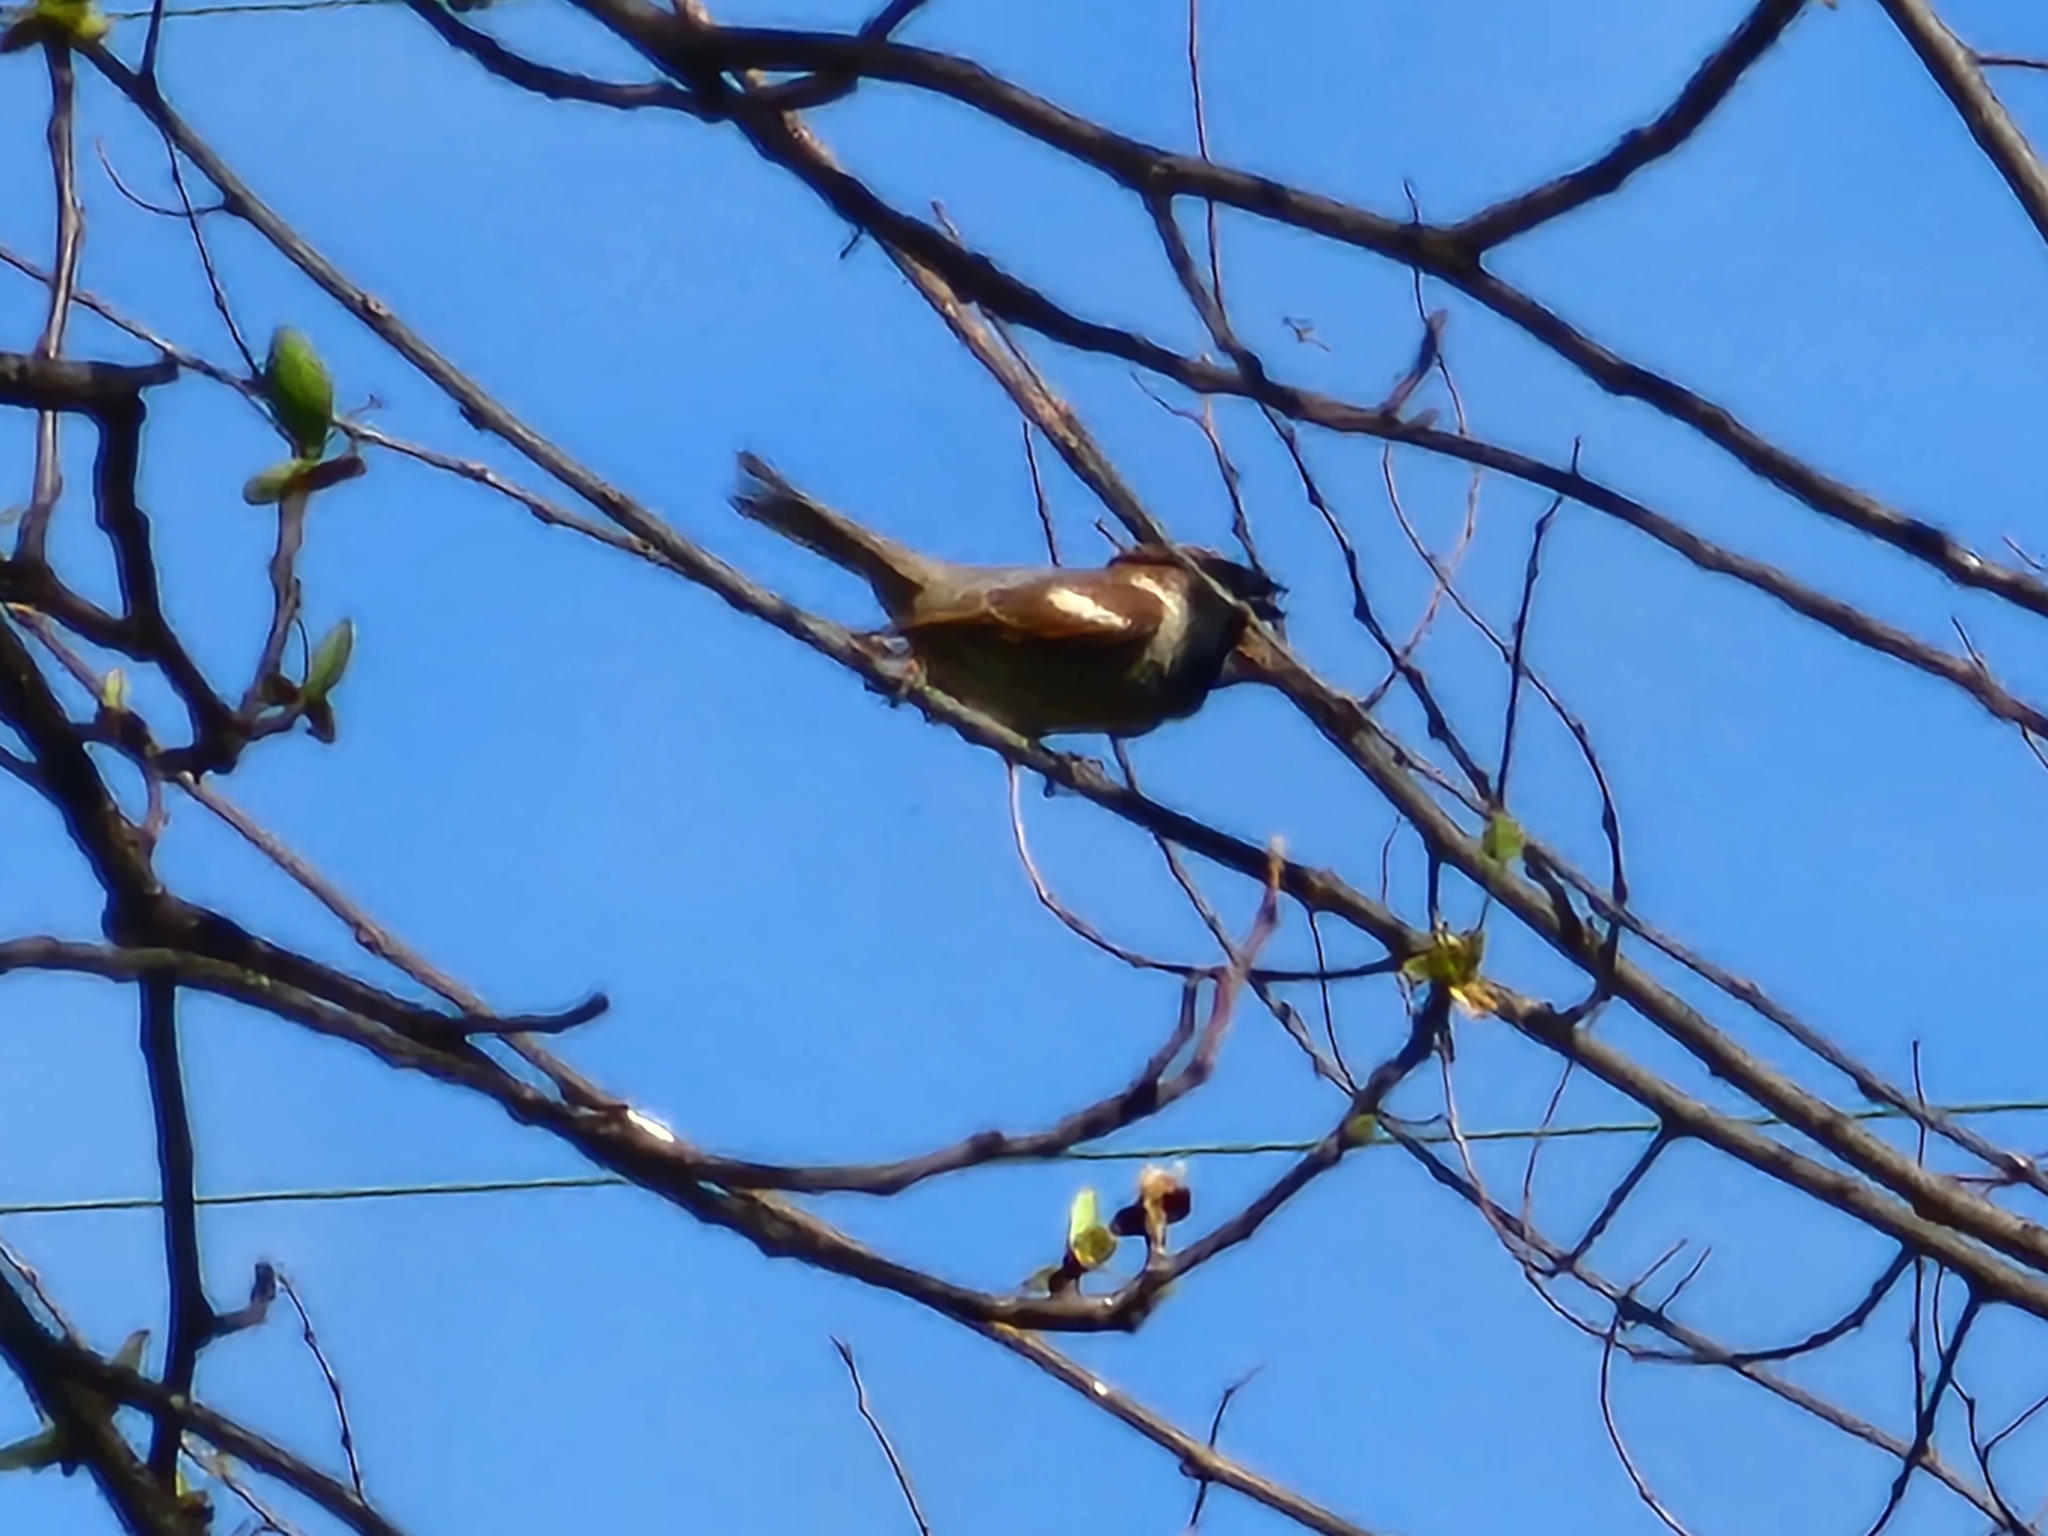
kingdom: Animalia
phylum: Chordata
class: Aves
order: Passeriformes
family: Passeridae
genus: Passer
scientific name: Passer domesticus
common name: House sparrow
